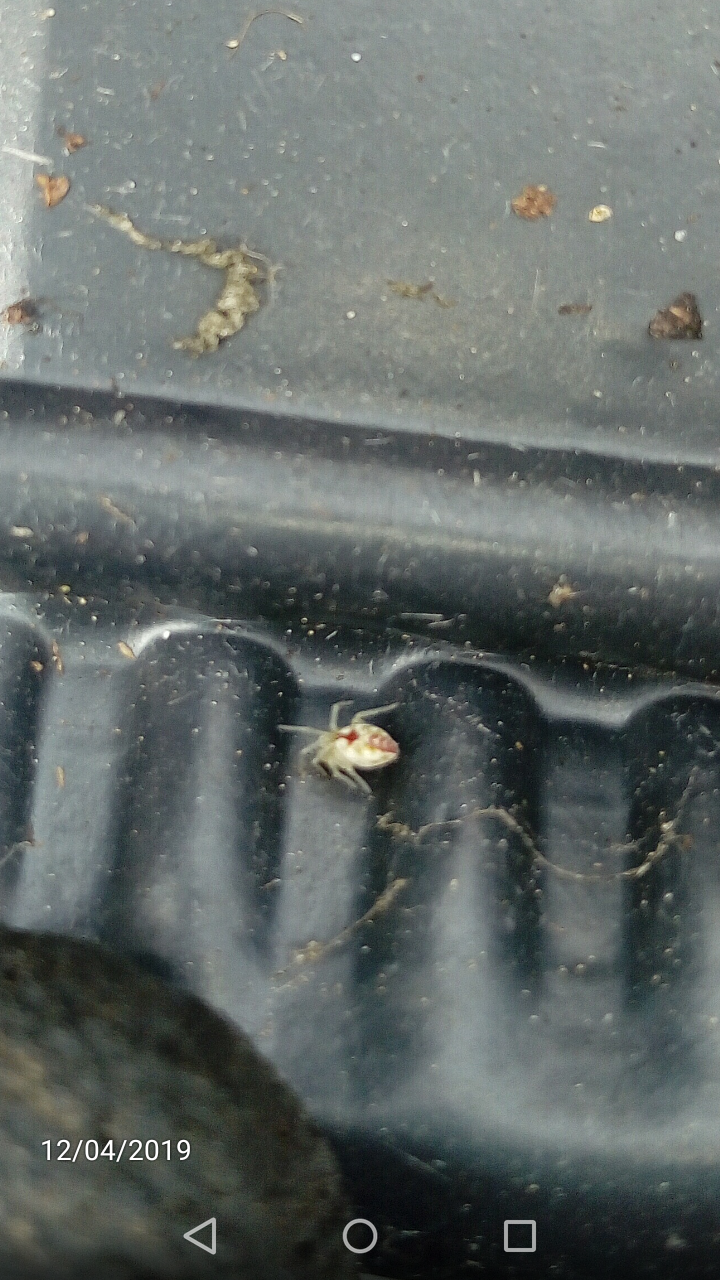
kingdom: Animalia
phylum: Arthropoda
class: Arachnida
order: Araneae
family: Dictynidae
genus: Nigma
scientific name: Nigma puella
